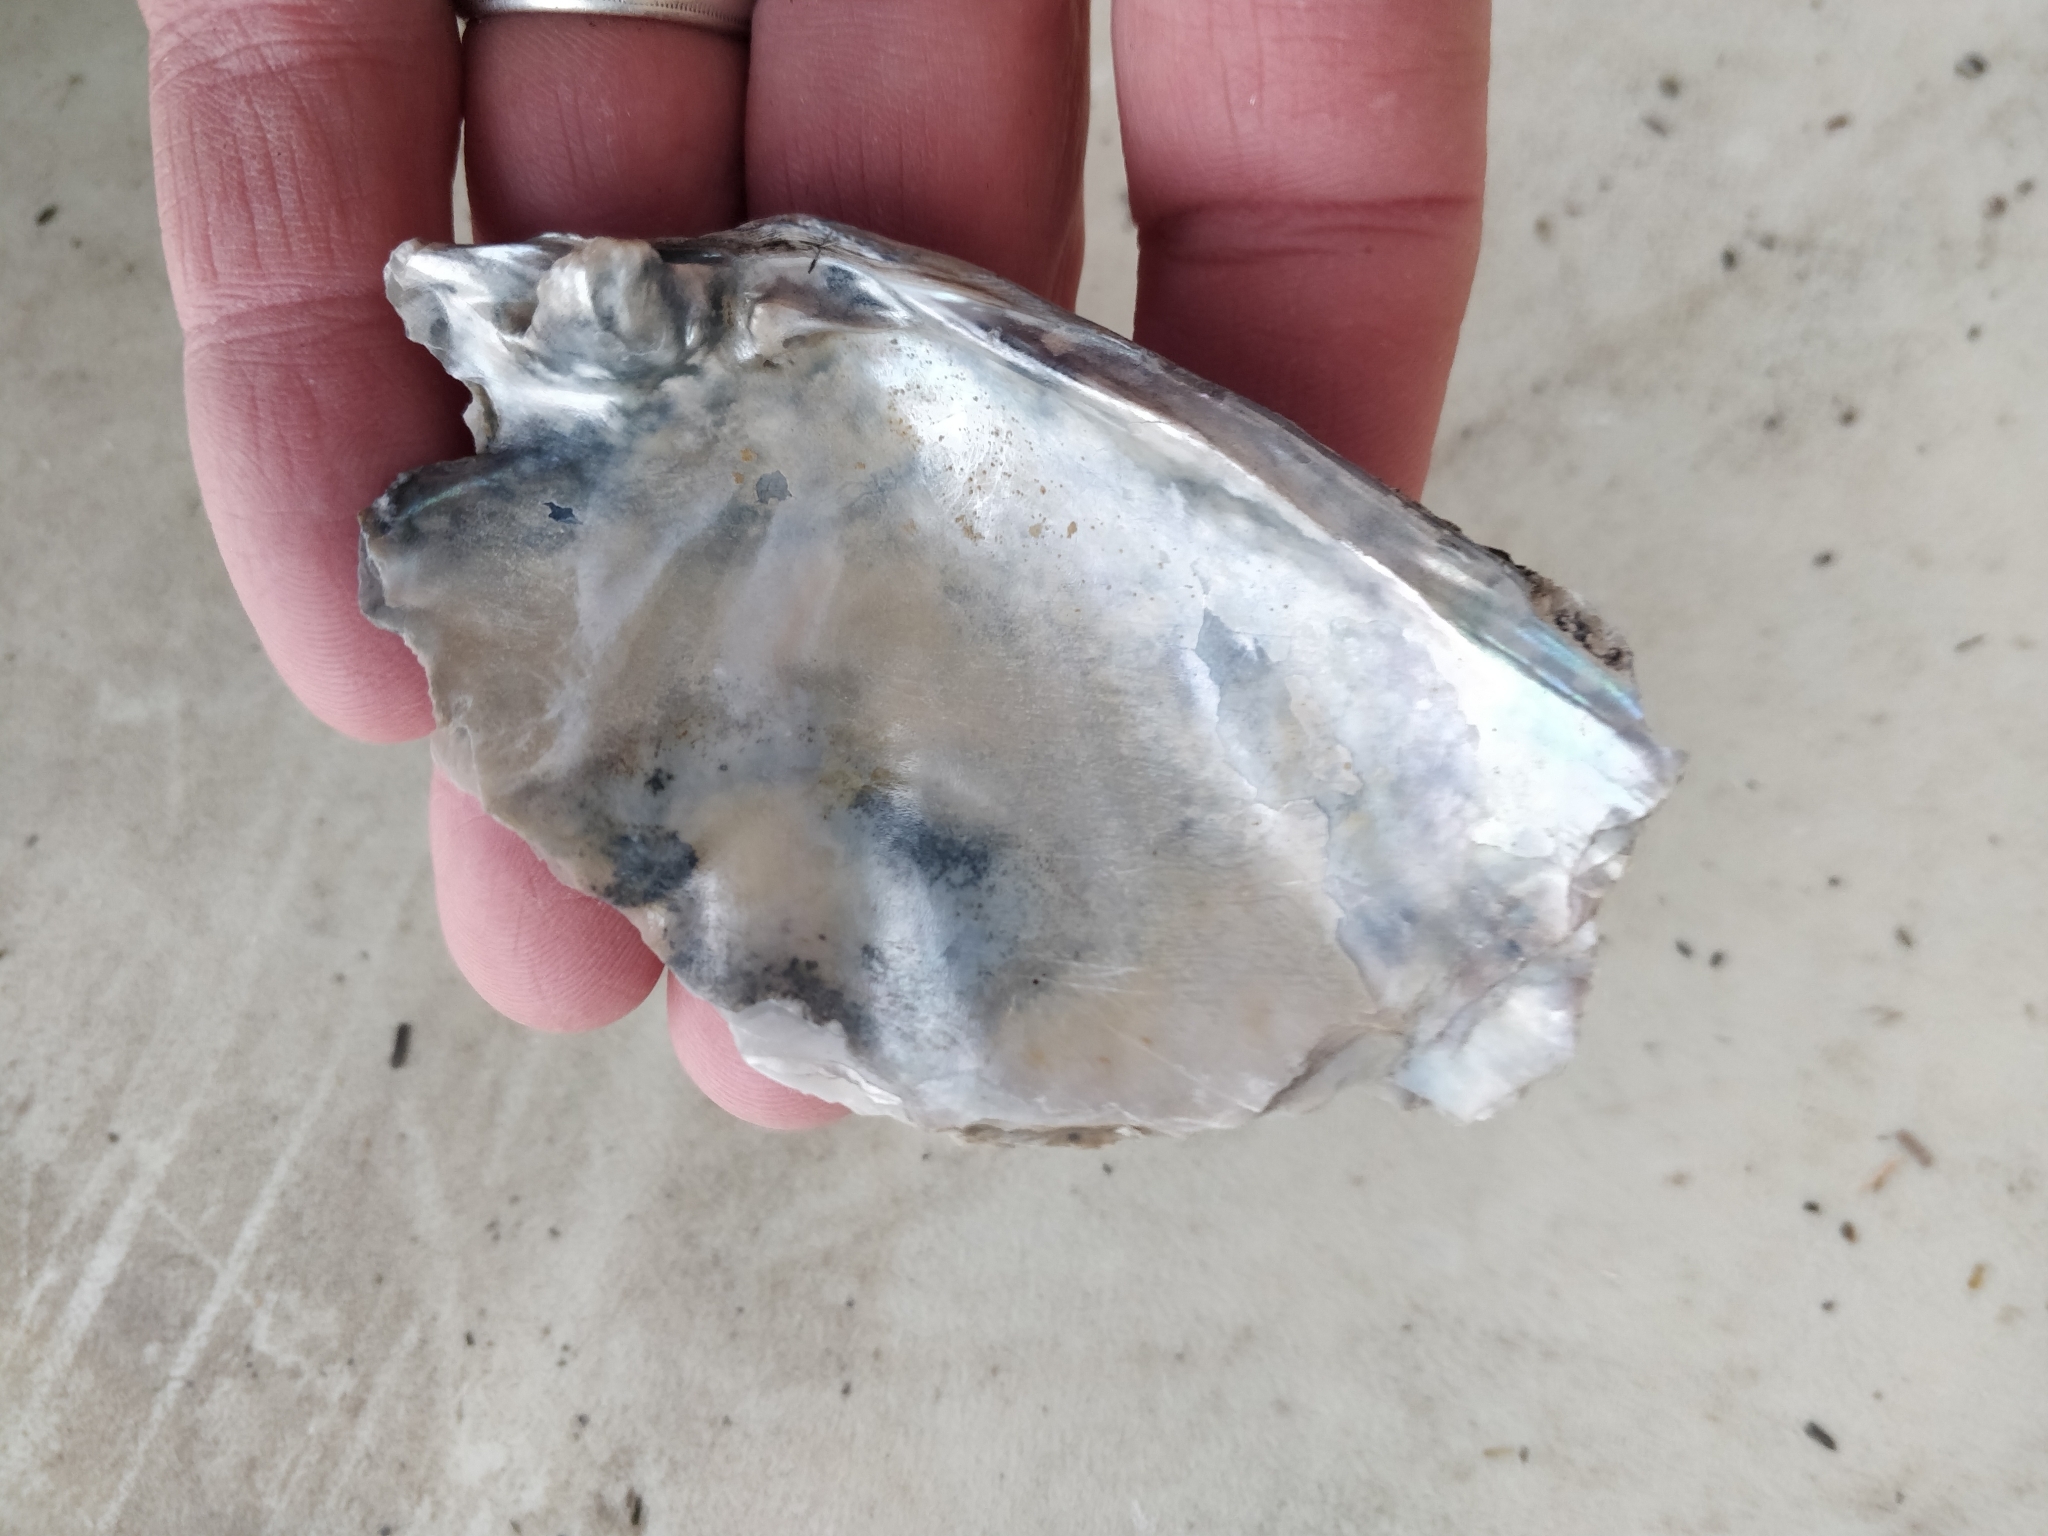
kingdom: Animalia
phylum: Mollusca
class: Bivalvia
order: Unionida
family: Unionidae
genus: Lasmigona
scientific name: Lasmigona complanata
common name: White heelsplitter
